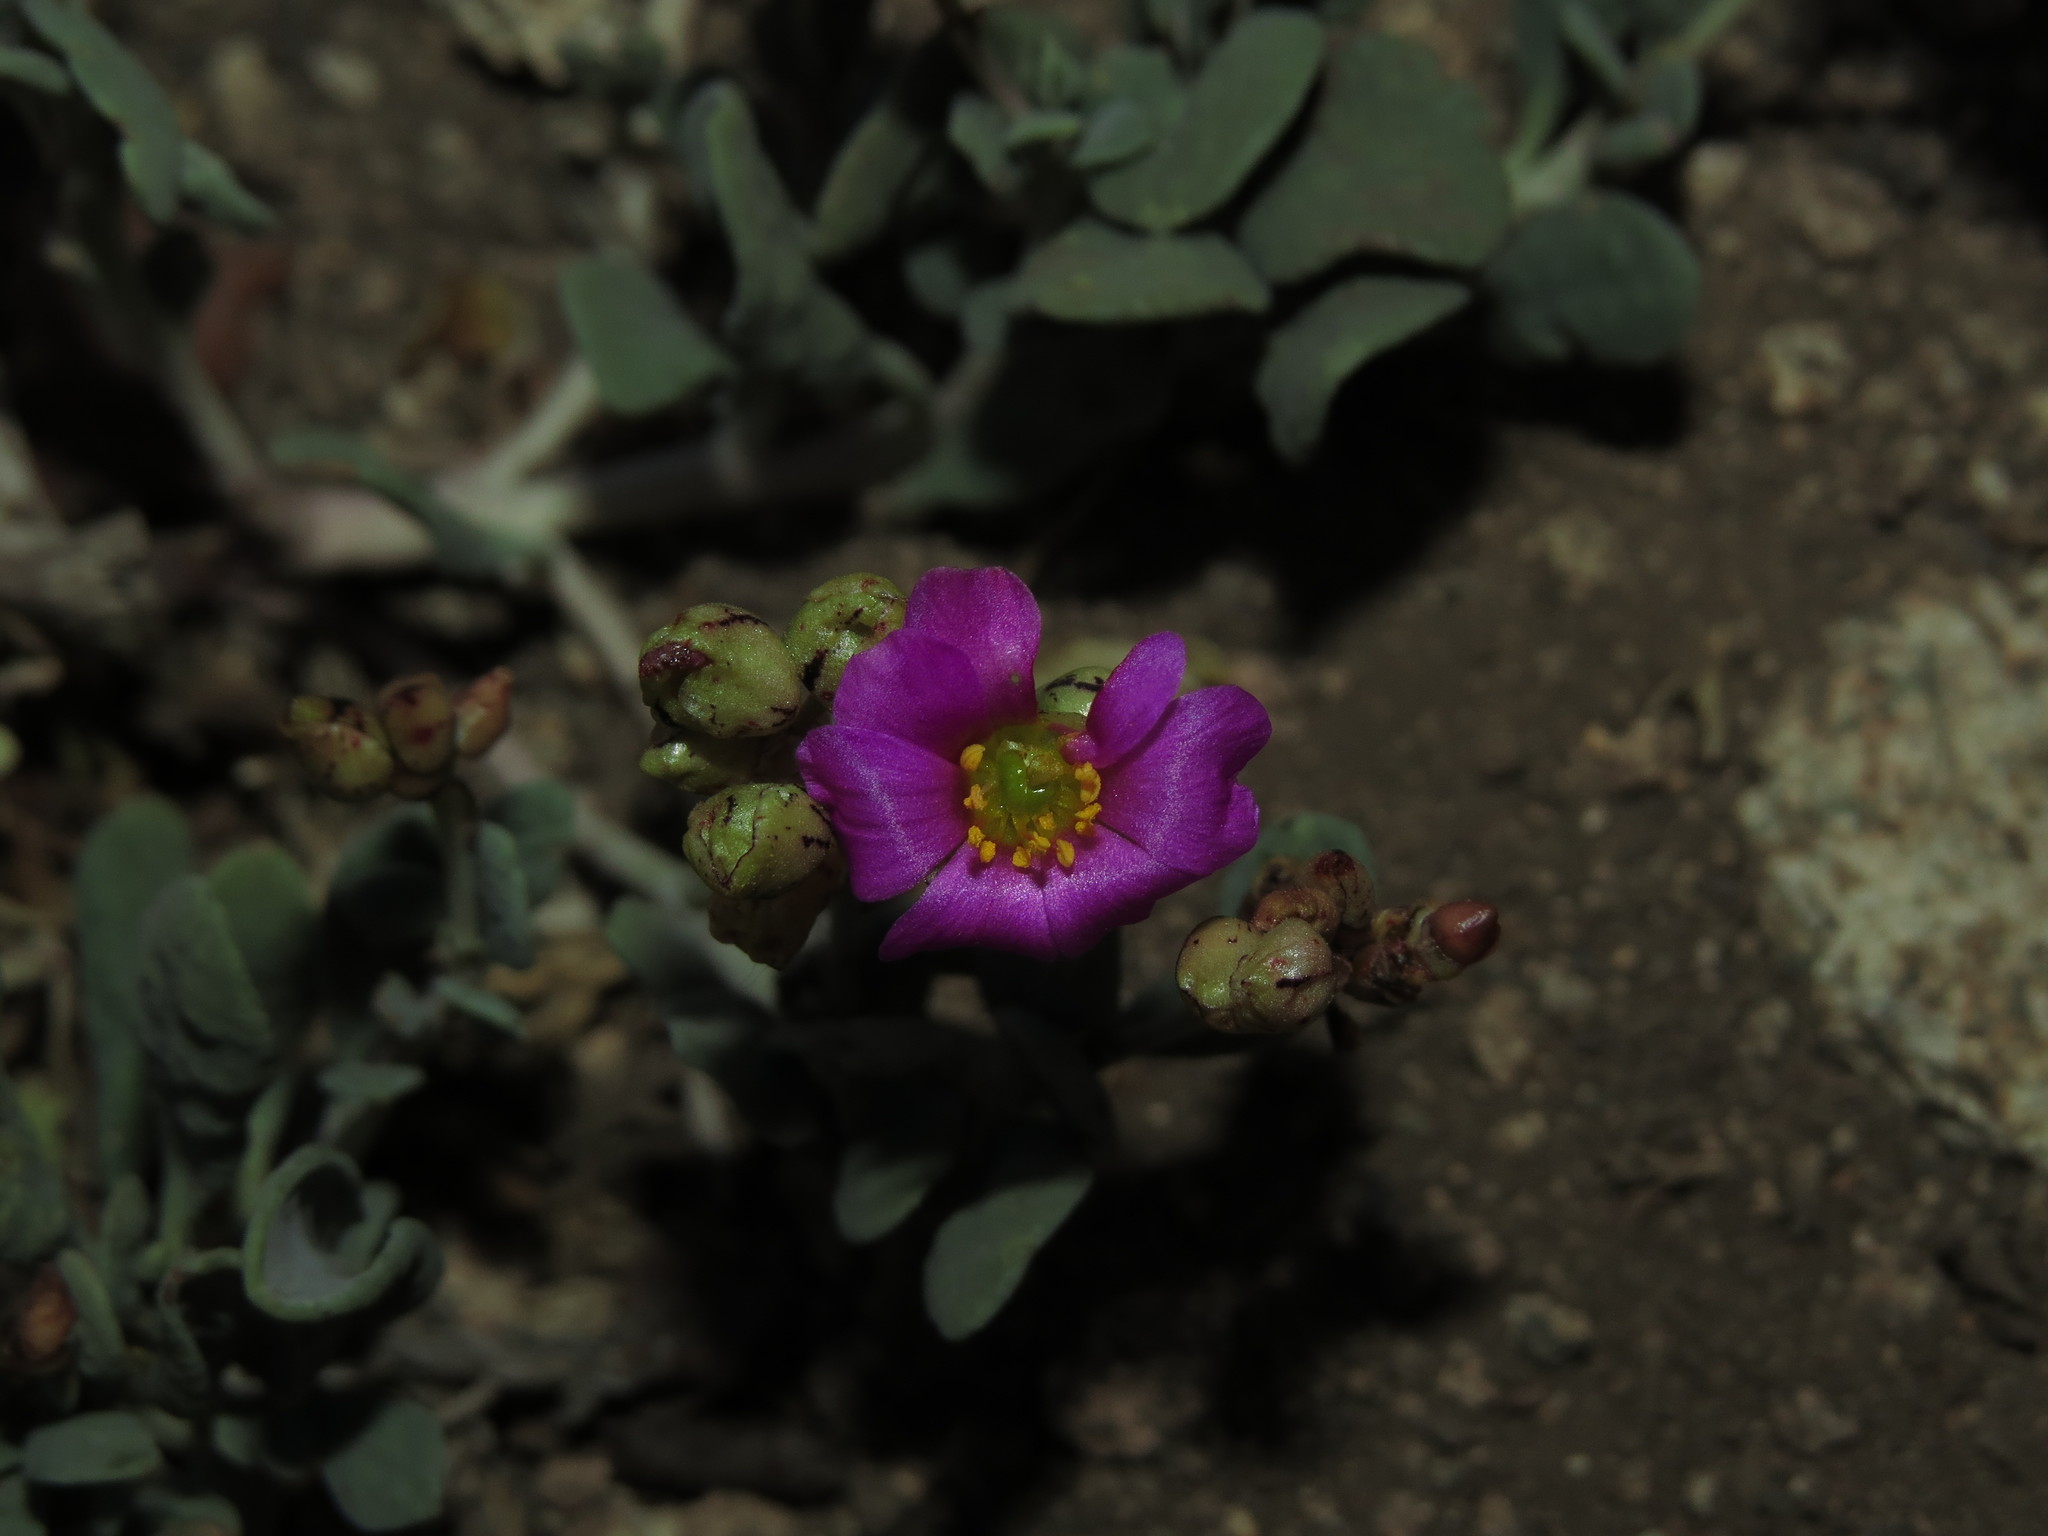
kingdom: Plantae
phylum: Tracheophyta
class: Magnoliopsida
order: Caryophyllales
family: Montiaceae
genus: Cistanthe
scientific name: Cistanthe picta
